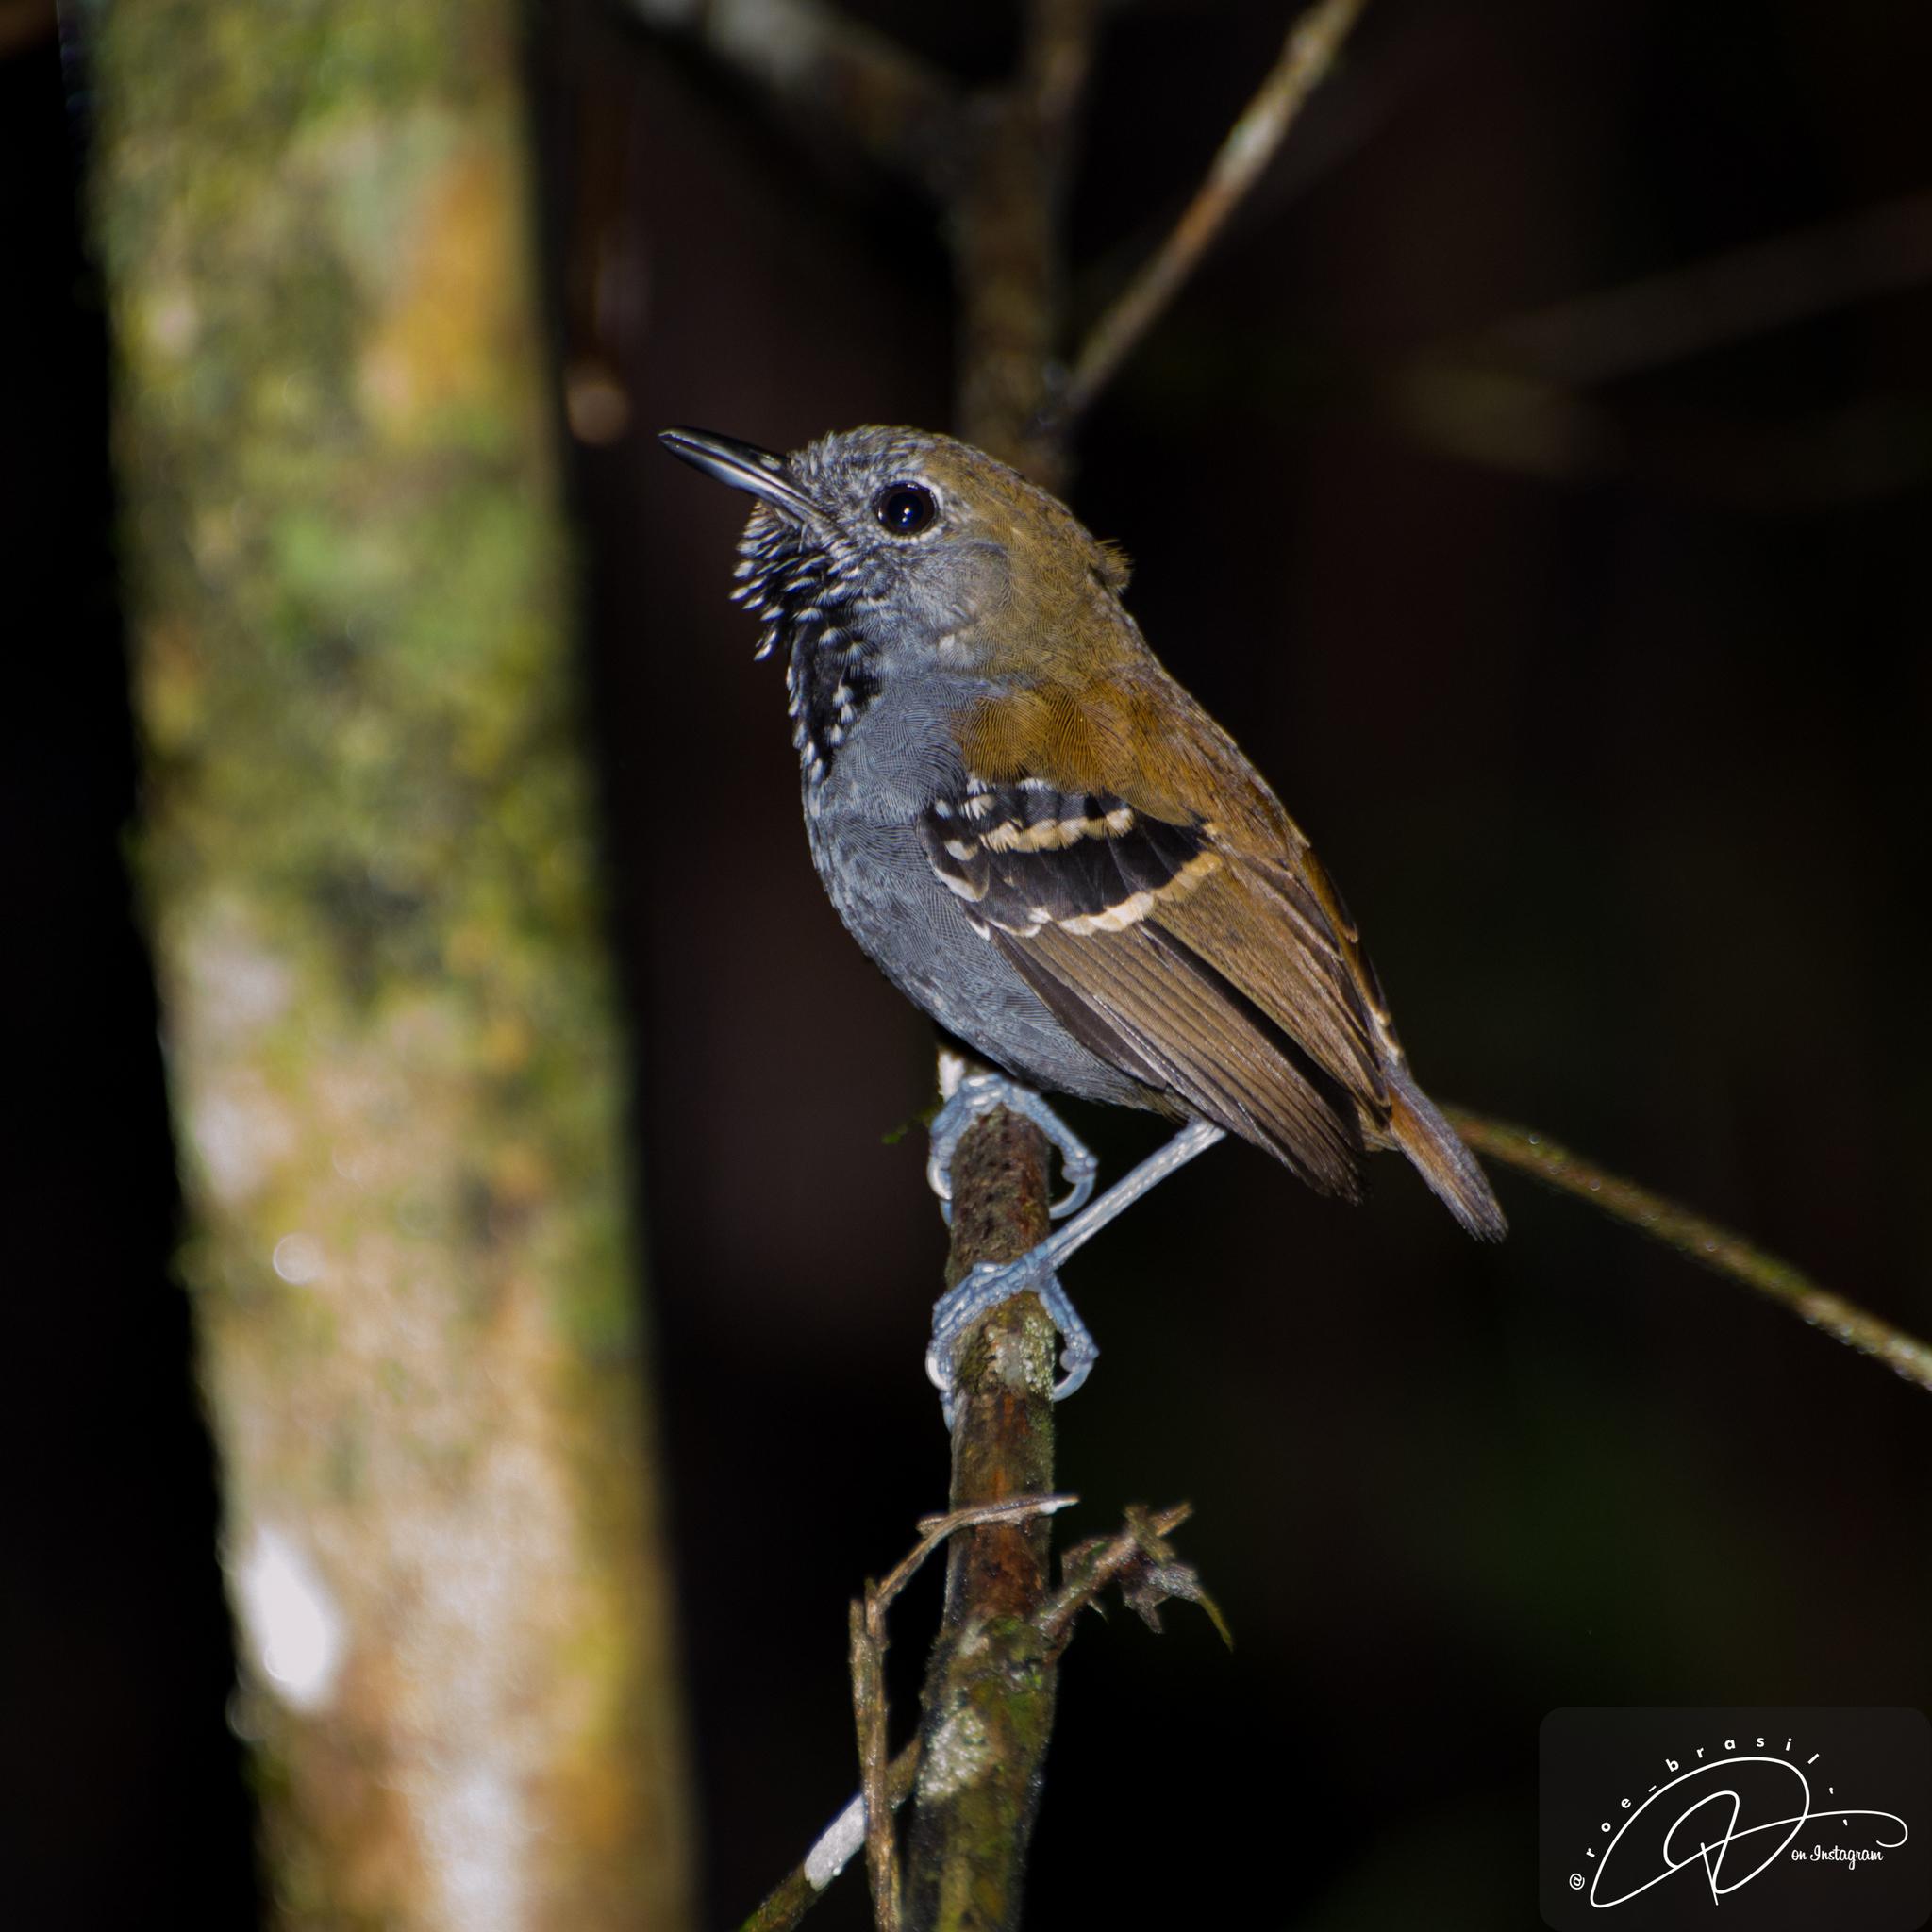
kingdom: Animalia
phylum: Chordata
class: Aves
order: Passeriformes
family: Thamnophilidae
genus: Rhopias
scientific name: Rhopias gularis
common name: Star-throated antwren
